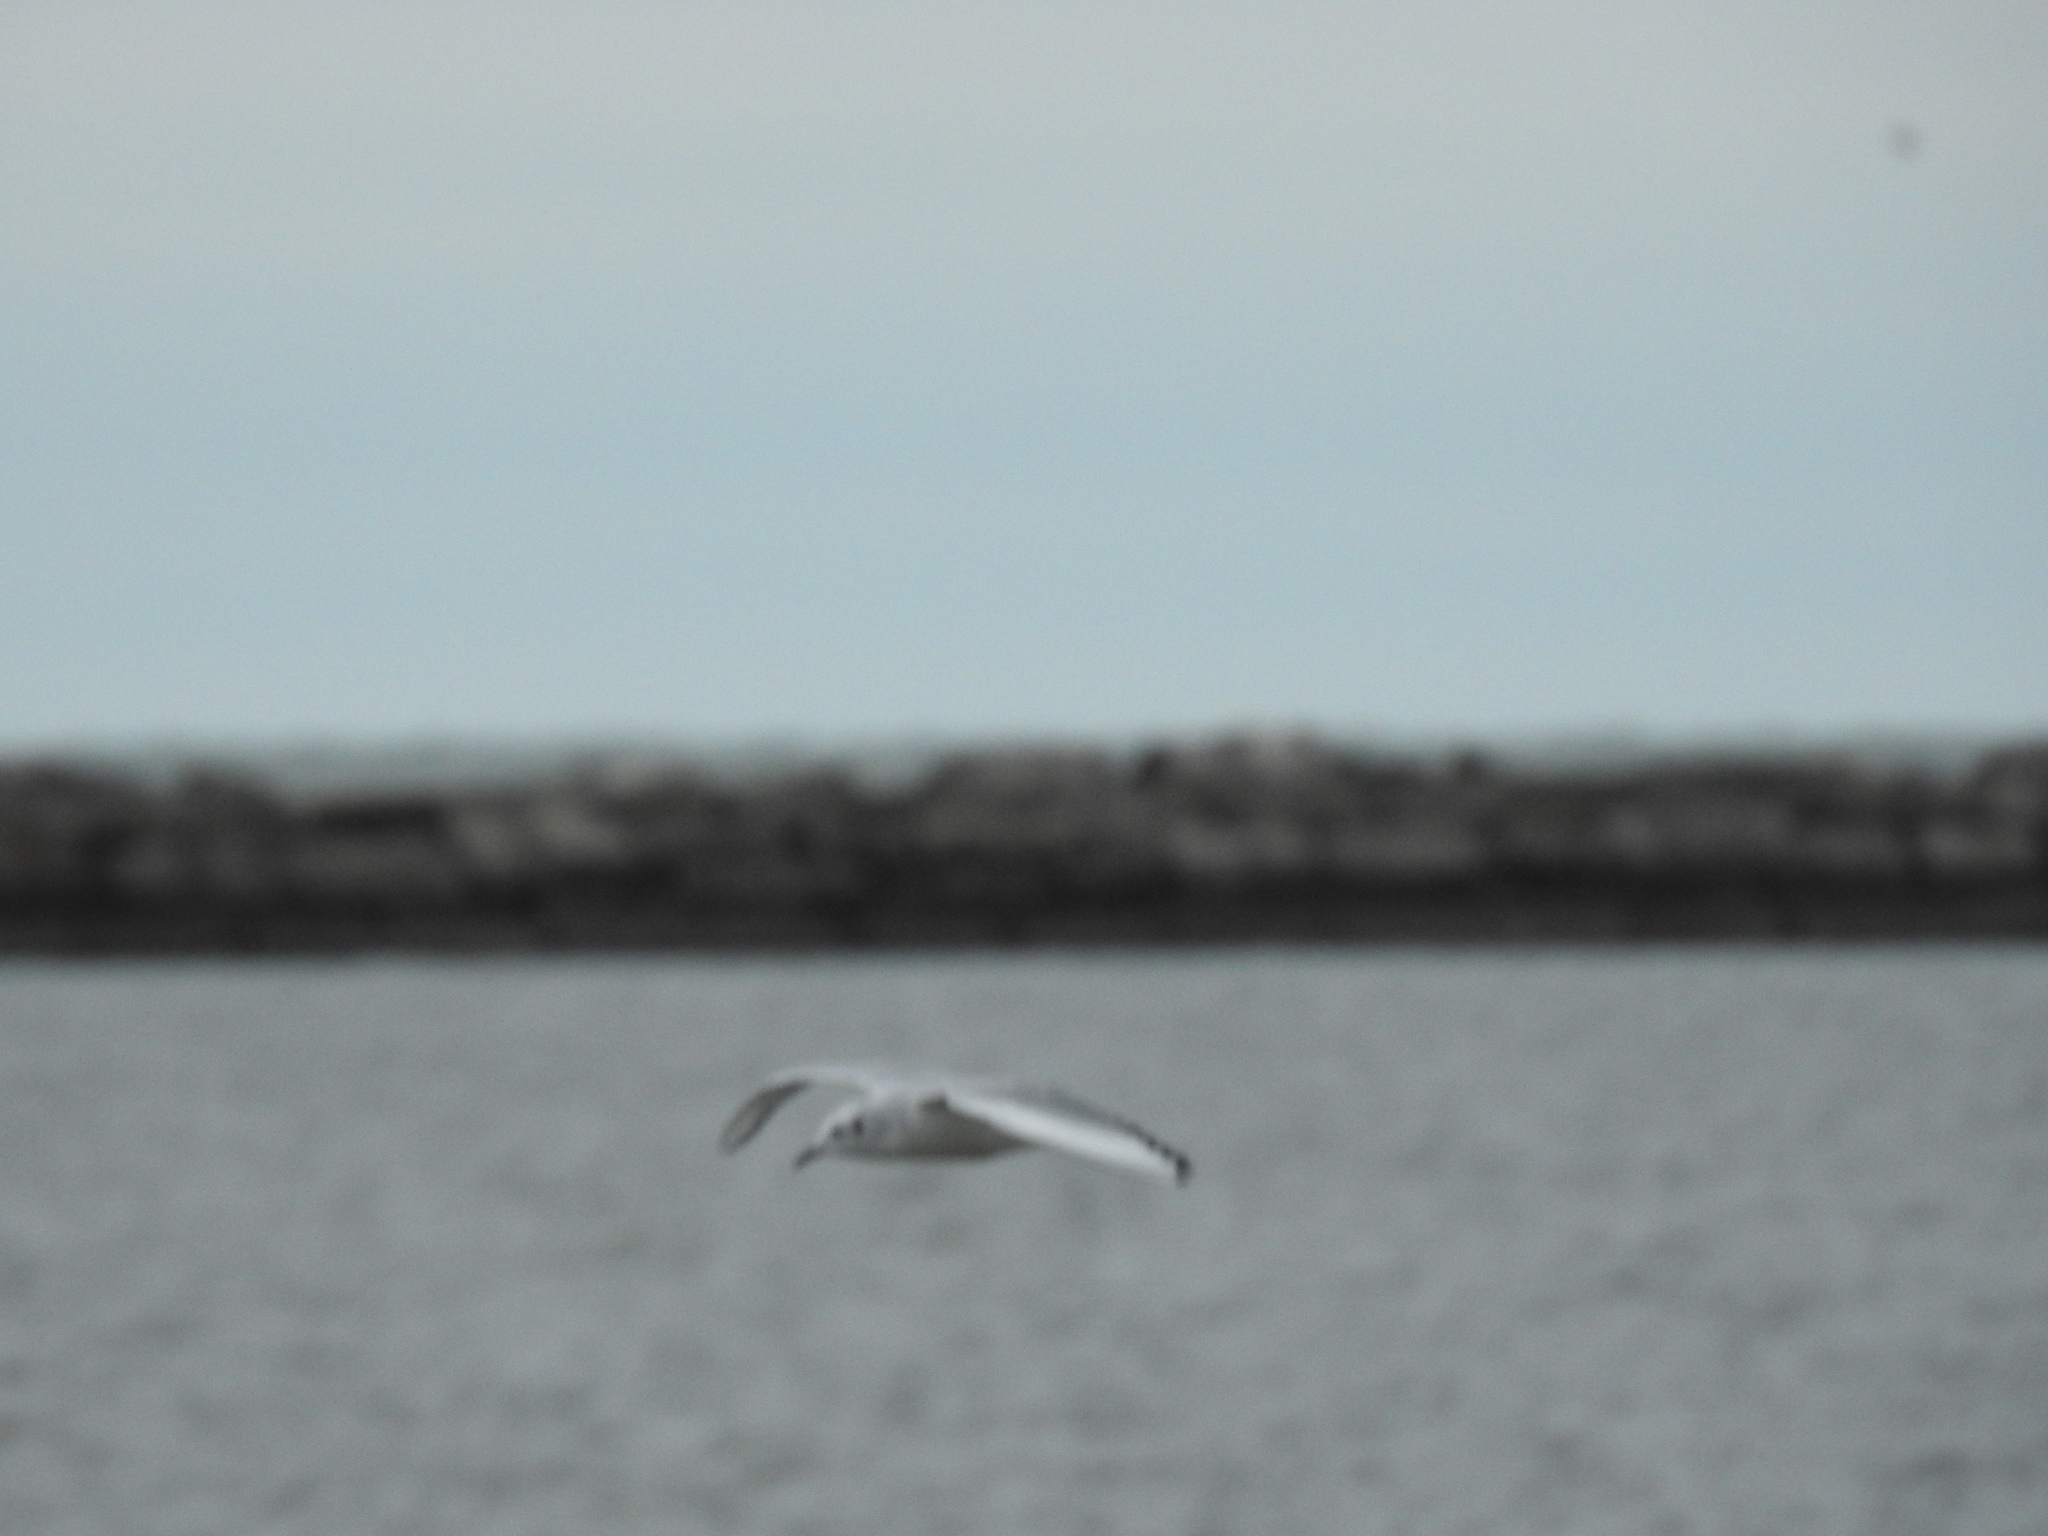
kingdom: Animalia
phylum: Chordata
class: Aves
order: Charadriiformes
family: Laridae
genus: Chroicocephalus
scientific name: Chroicocephalus philadelphia
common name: Bonaparte's gull
